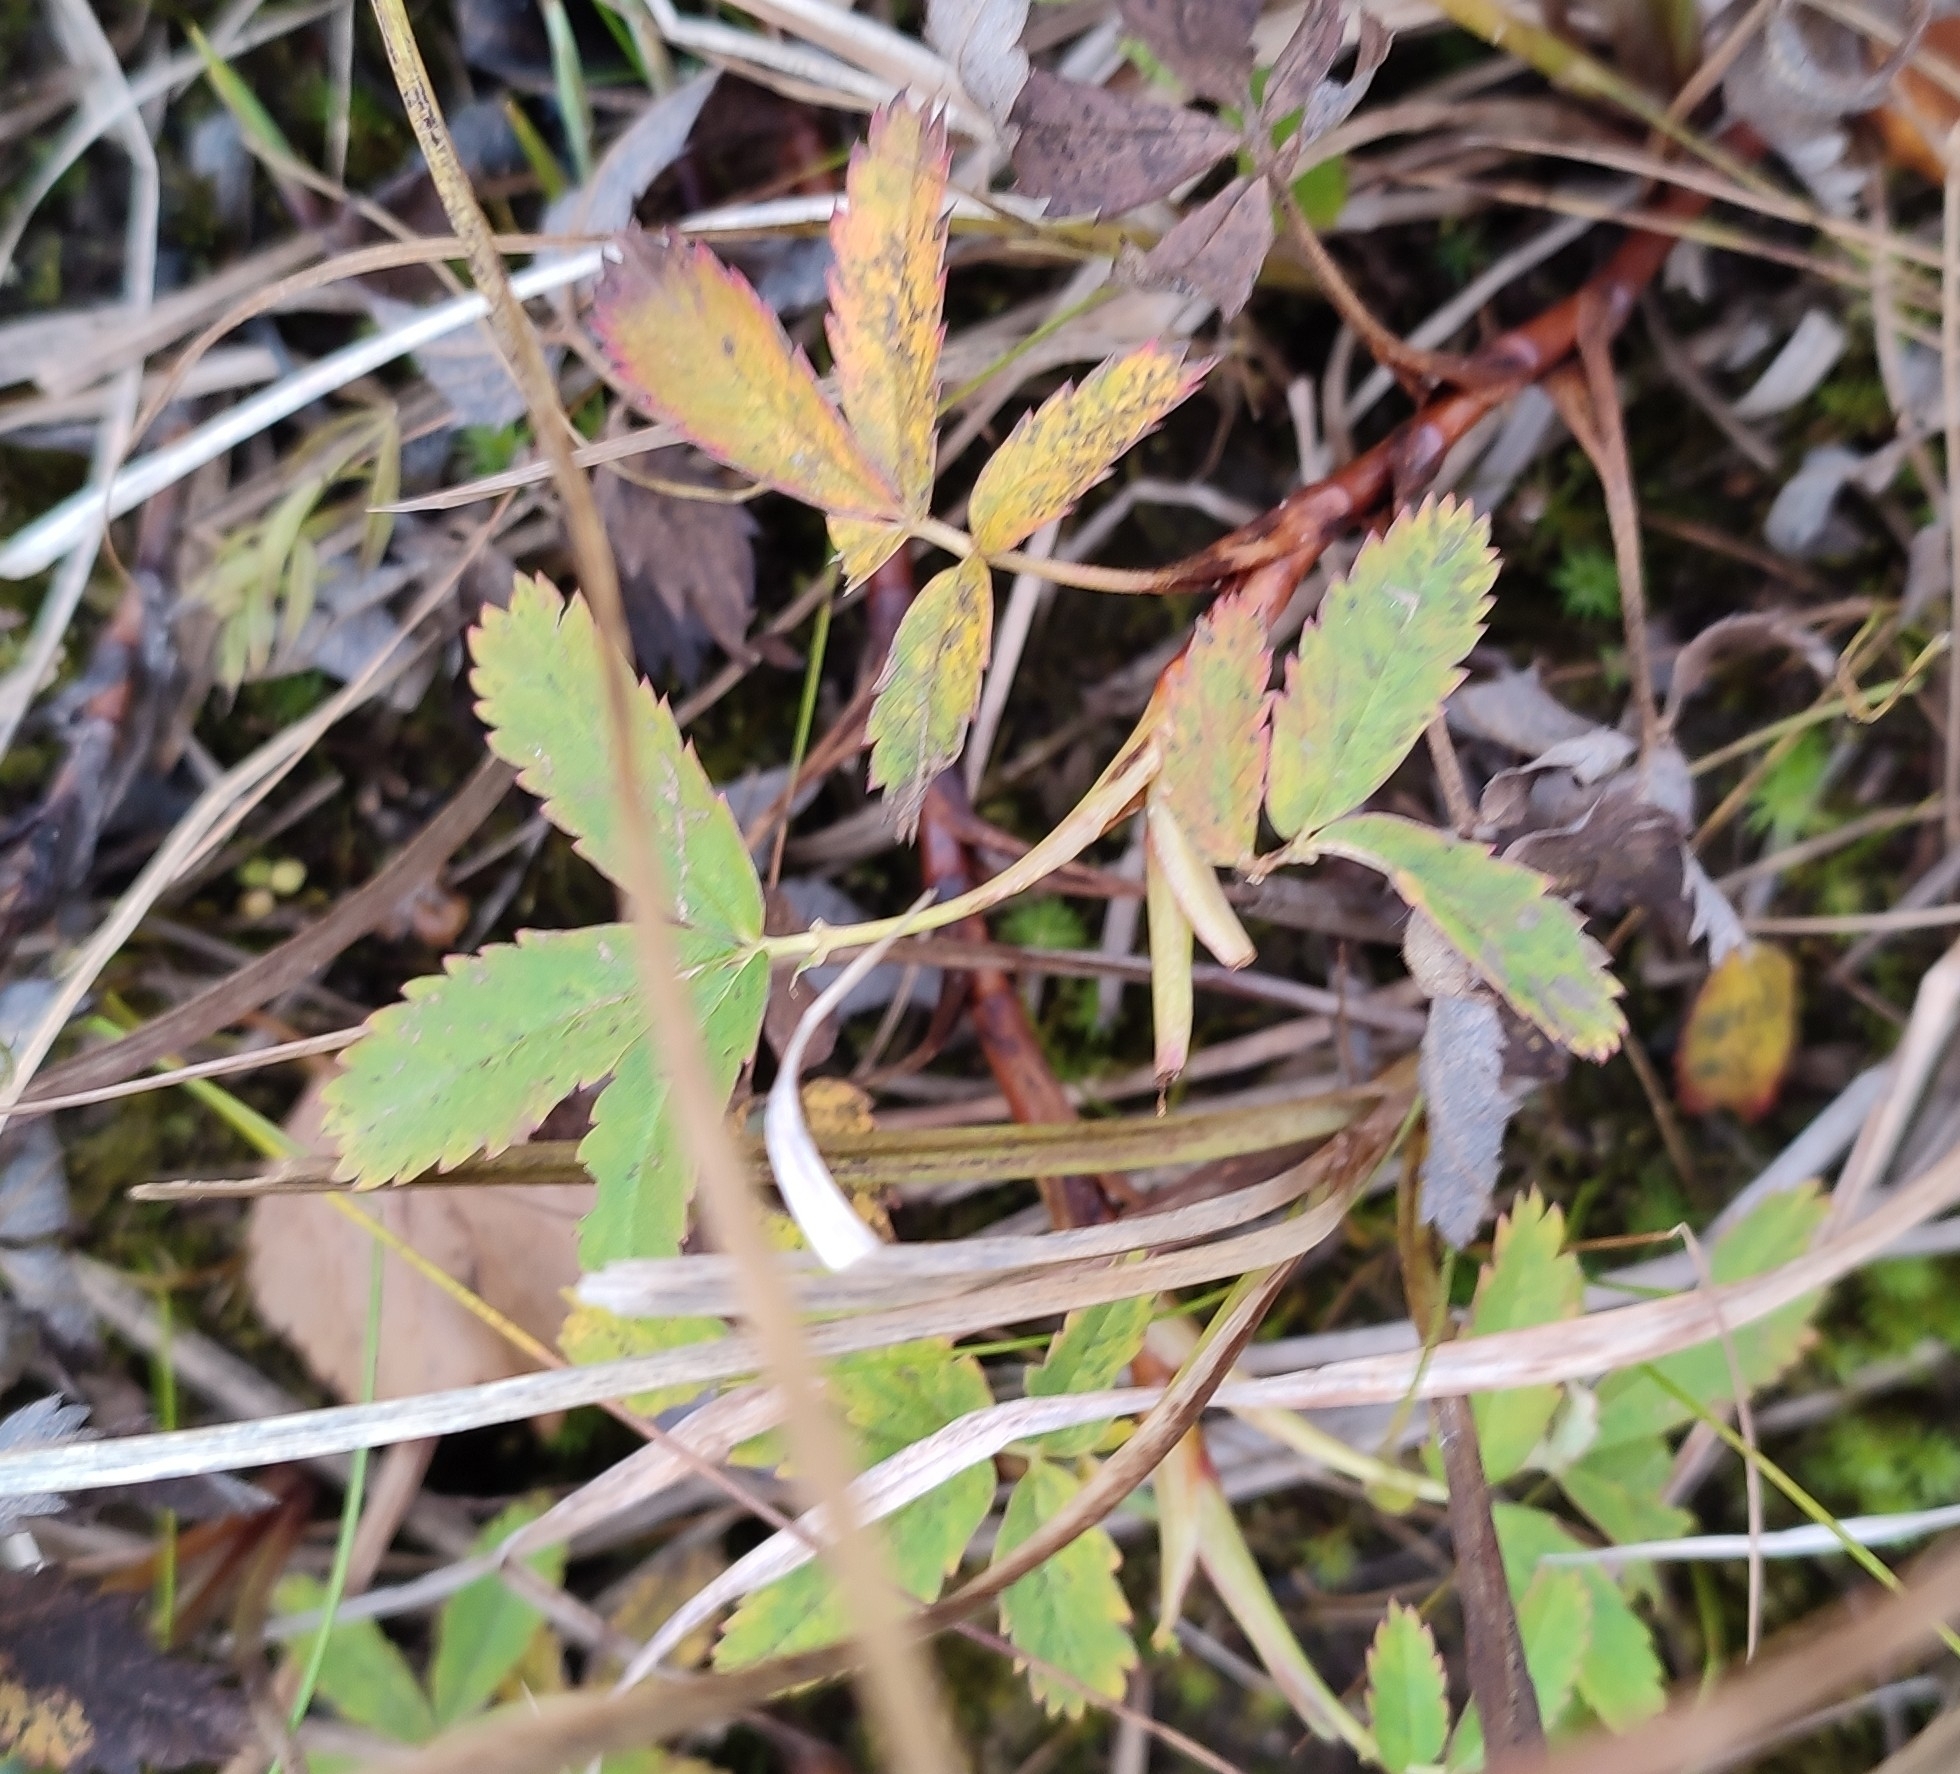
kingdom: Plantae
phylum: Tracheophyta
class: Magnoliopsida
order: Rosales
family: Rosaceae
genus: Comarum
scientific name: Comarum palustre
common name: Marsh cinquefoil
